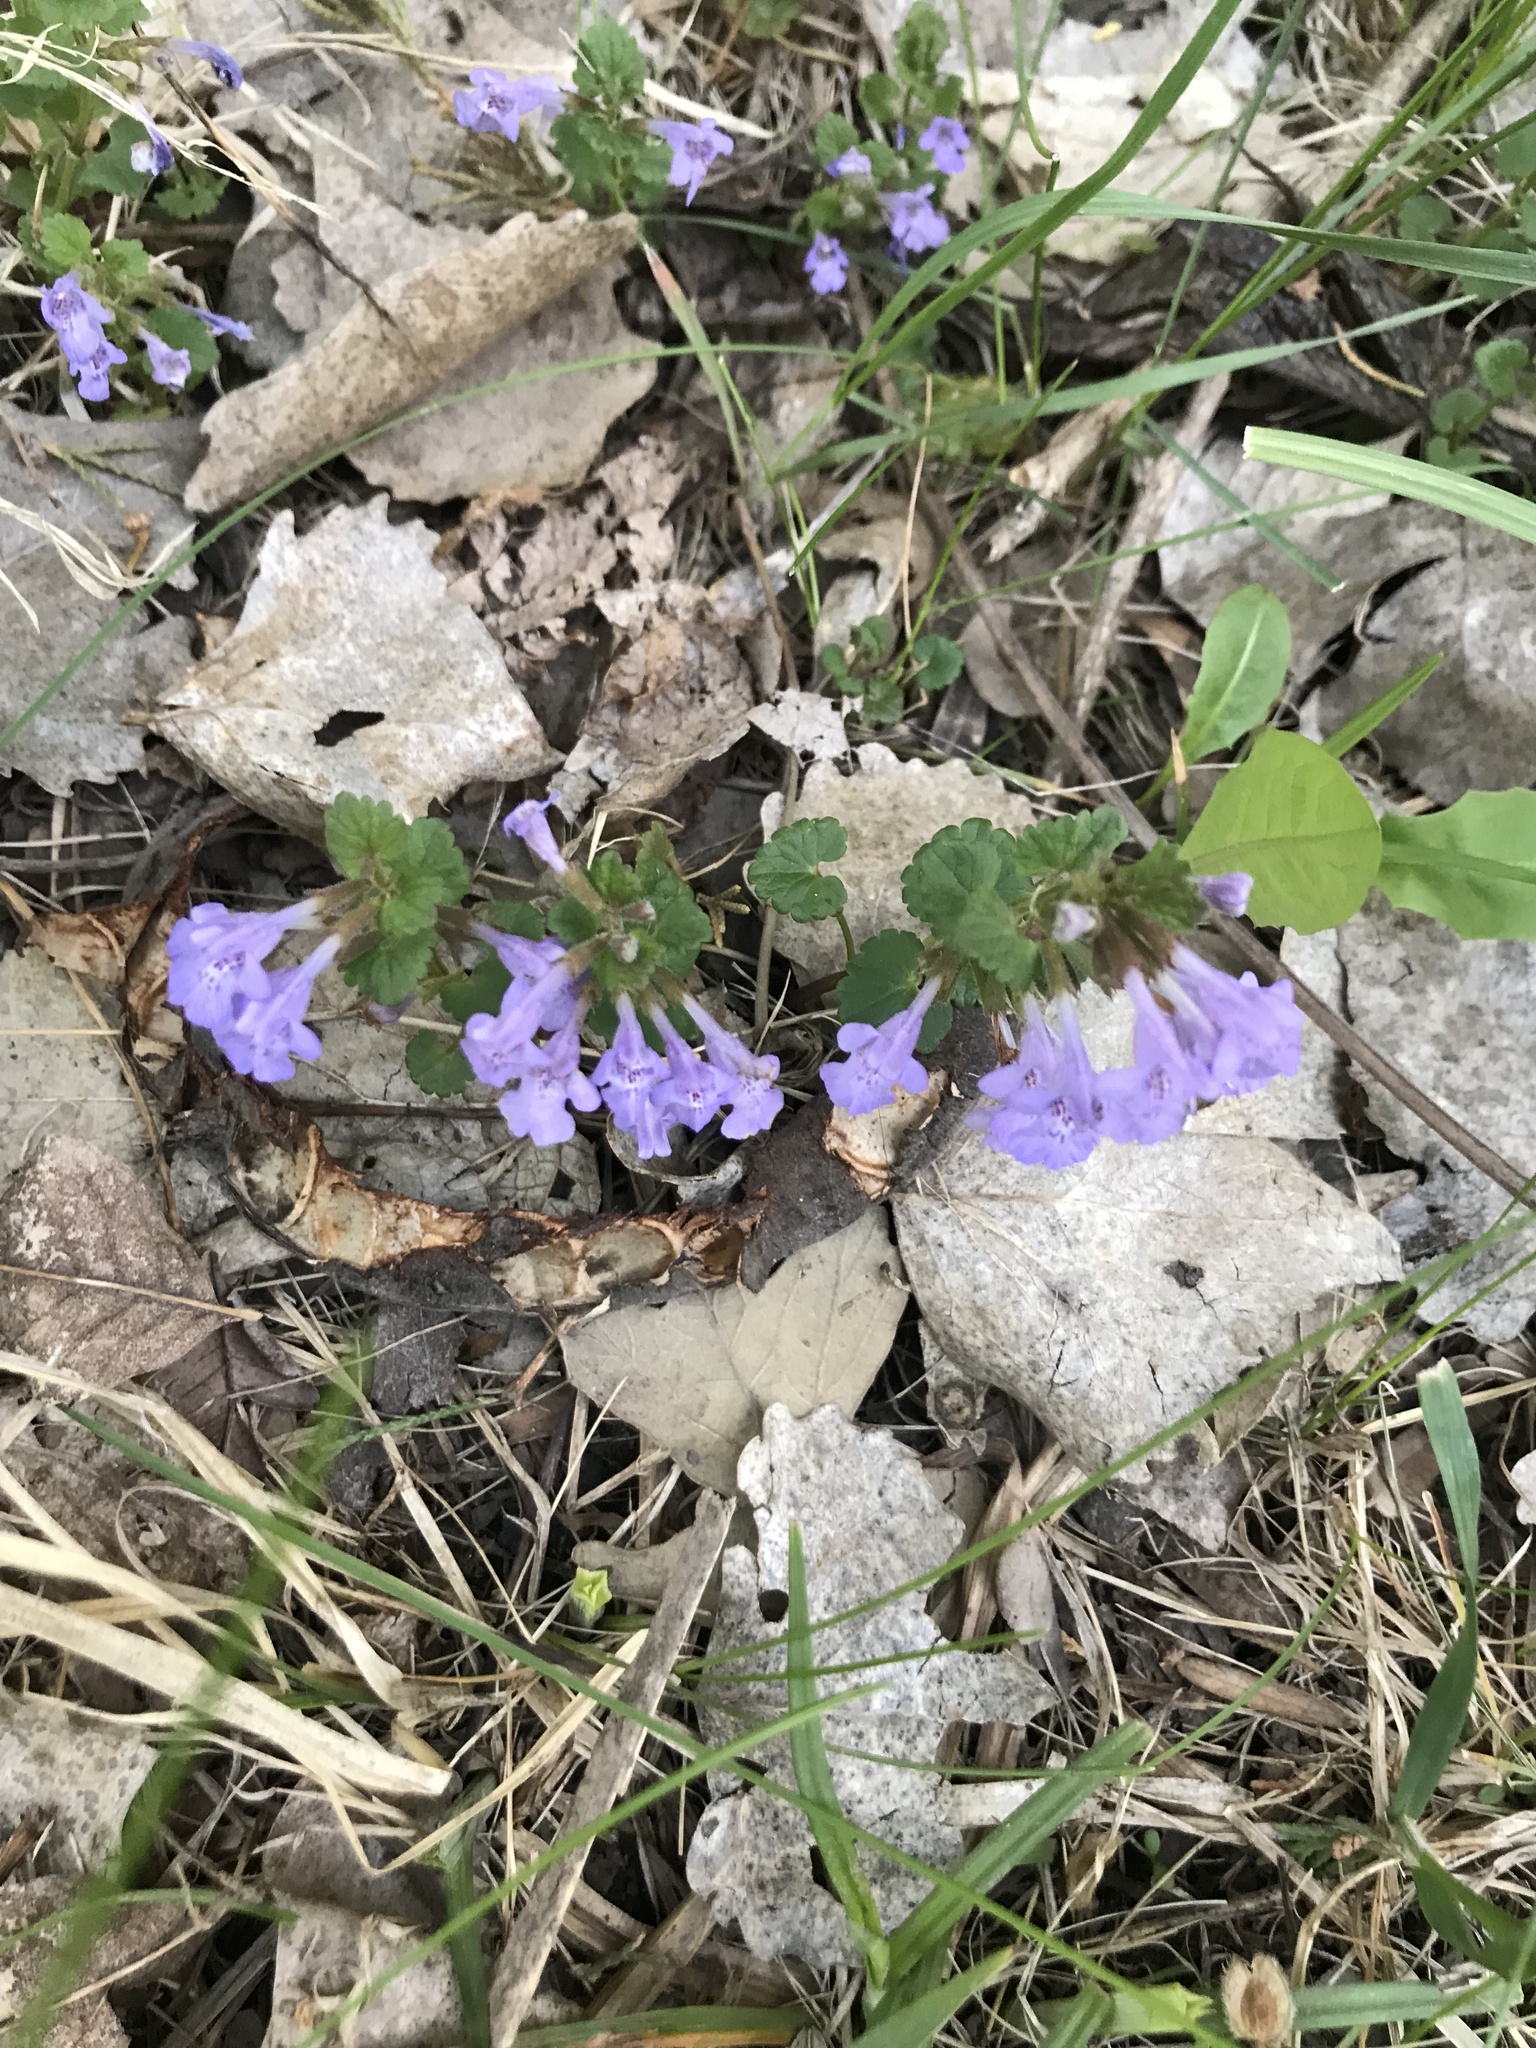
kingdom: Plantae
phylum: Tracheophyta
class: Magnoliopsida
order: Lamiales
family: Lamiaceae
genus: Glechoma
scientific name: Glechoma hederacea
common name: Ground ivy
